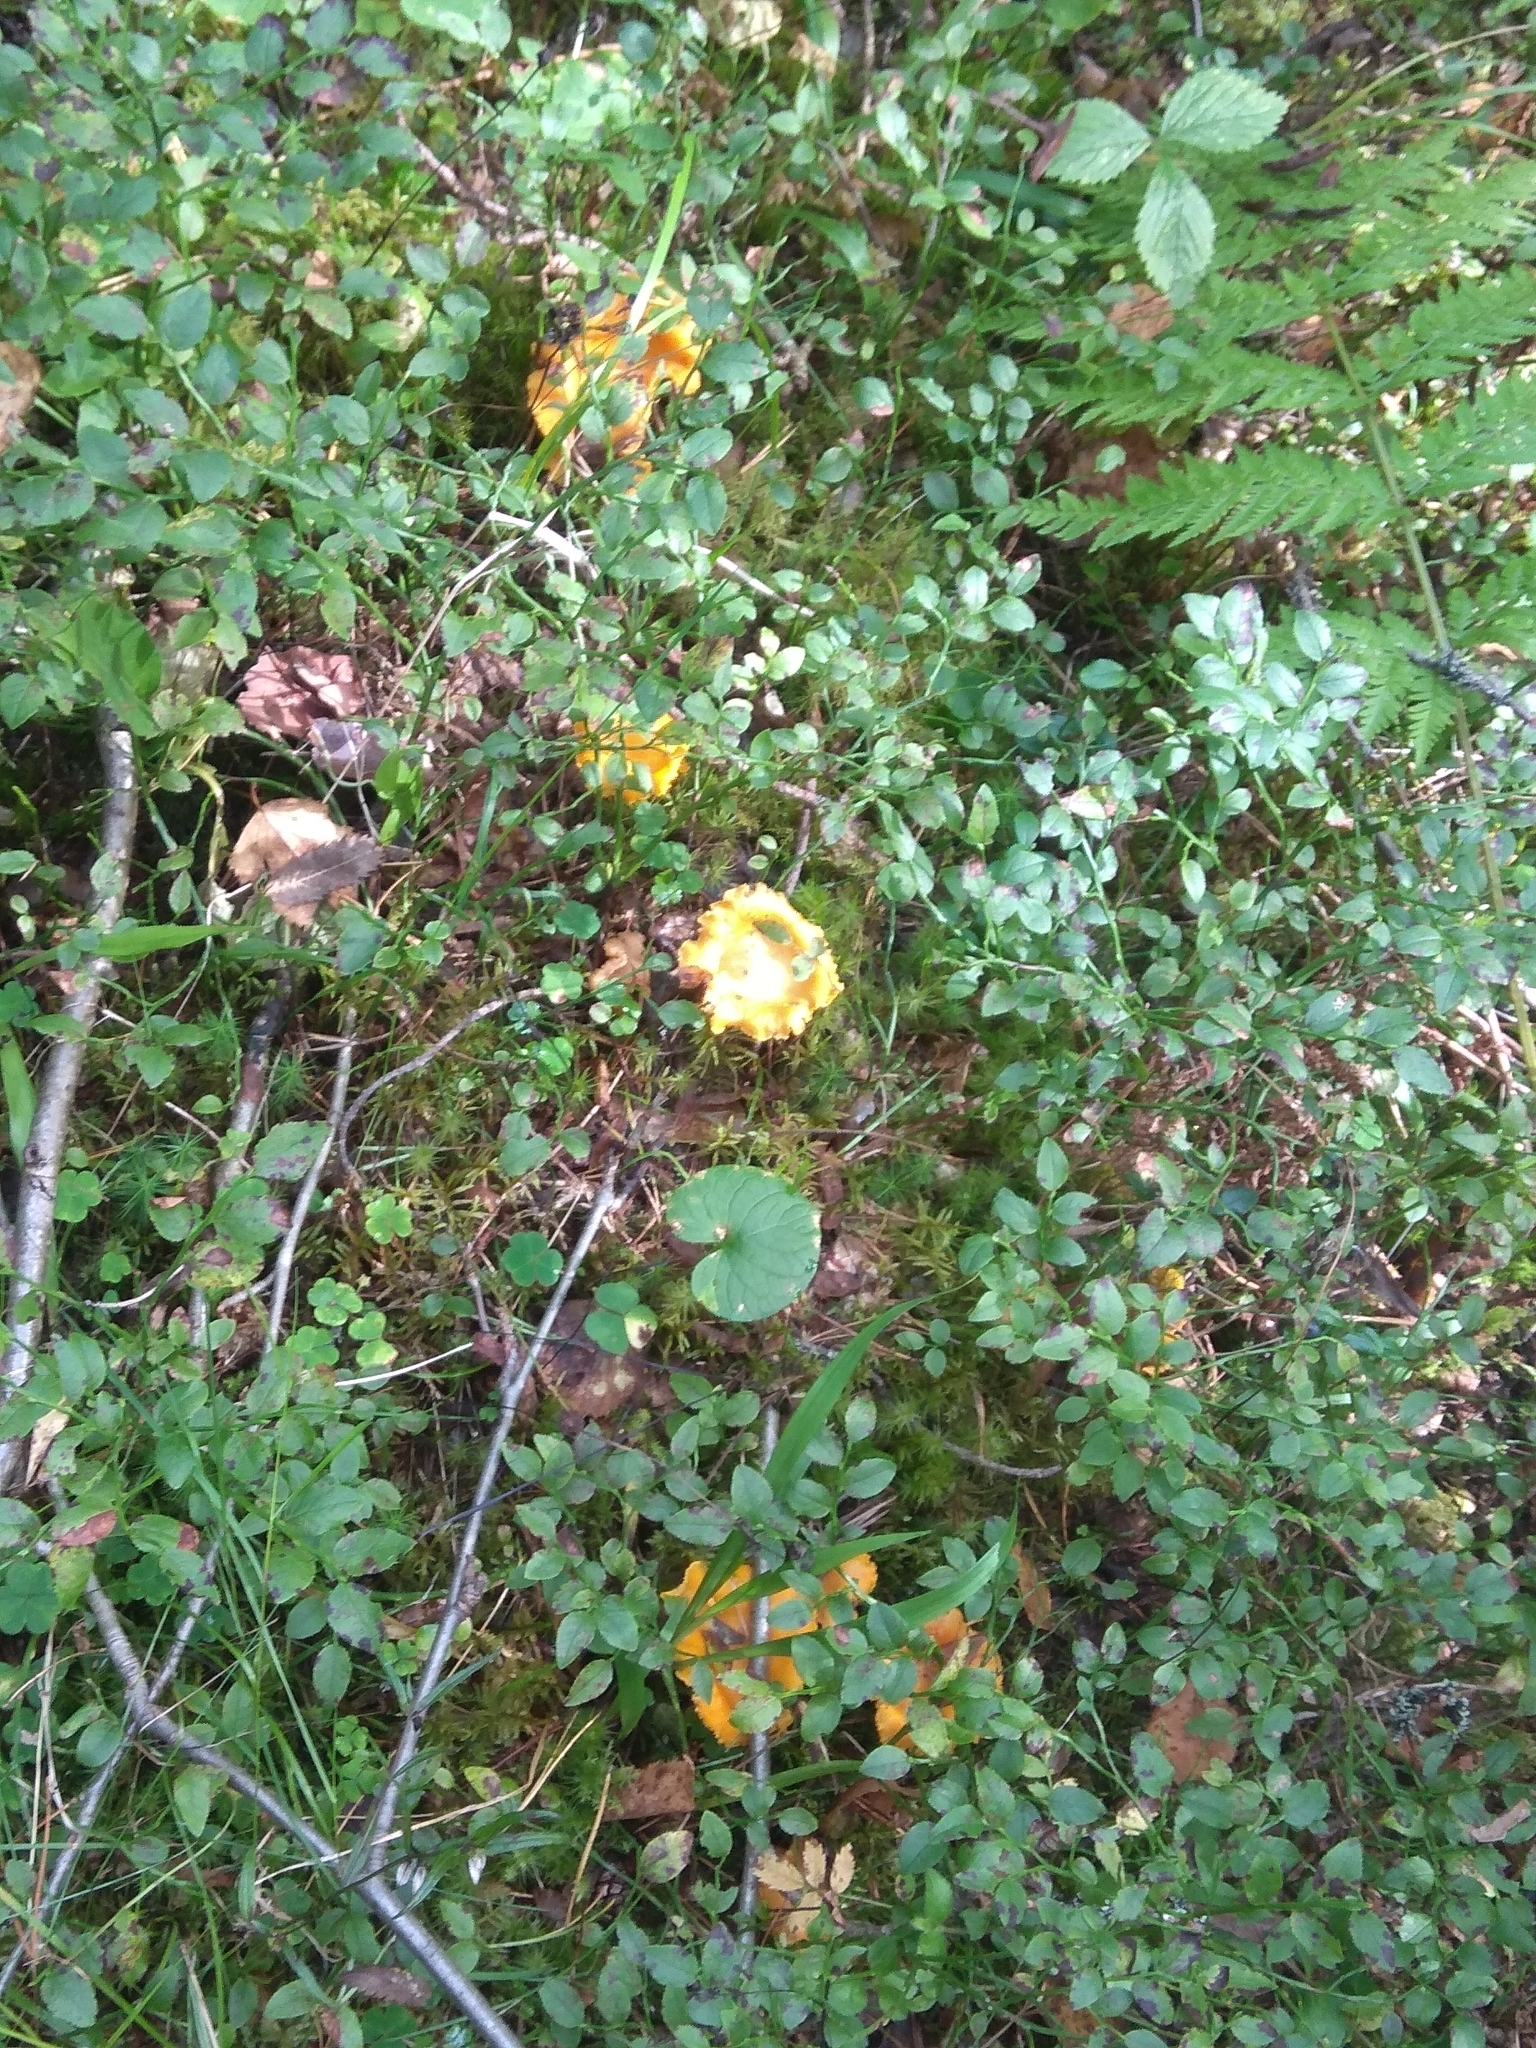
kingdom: Fungi
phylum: Basidiomycota
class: Agaricomycetes
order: Cantharellales
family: Hydnaceae
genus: Cantharellus
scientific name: Cantharellus cibarius
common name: Chanterelle
